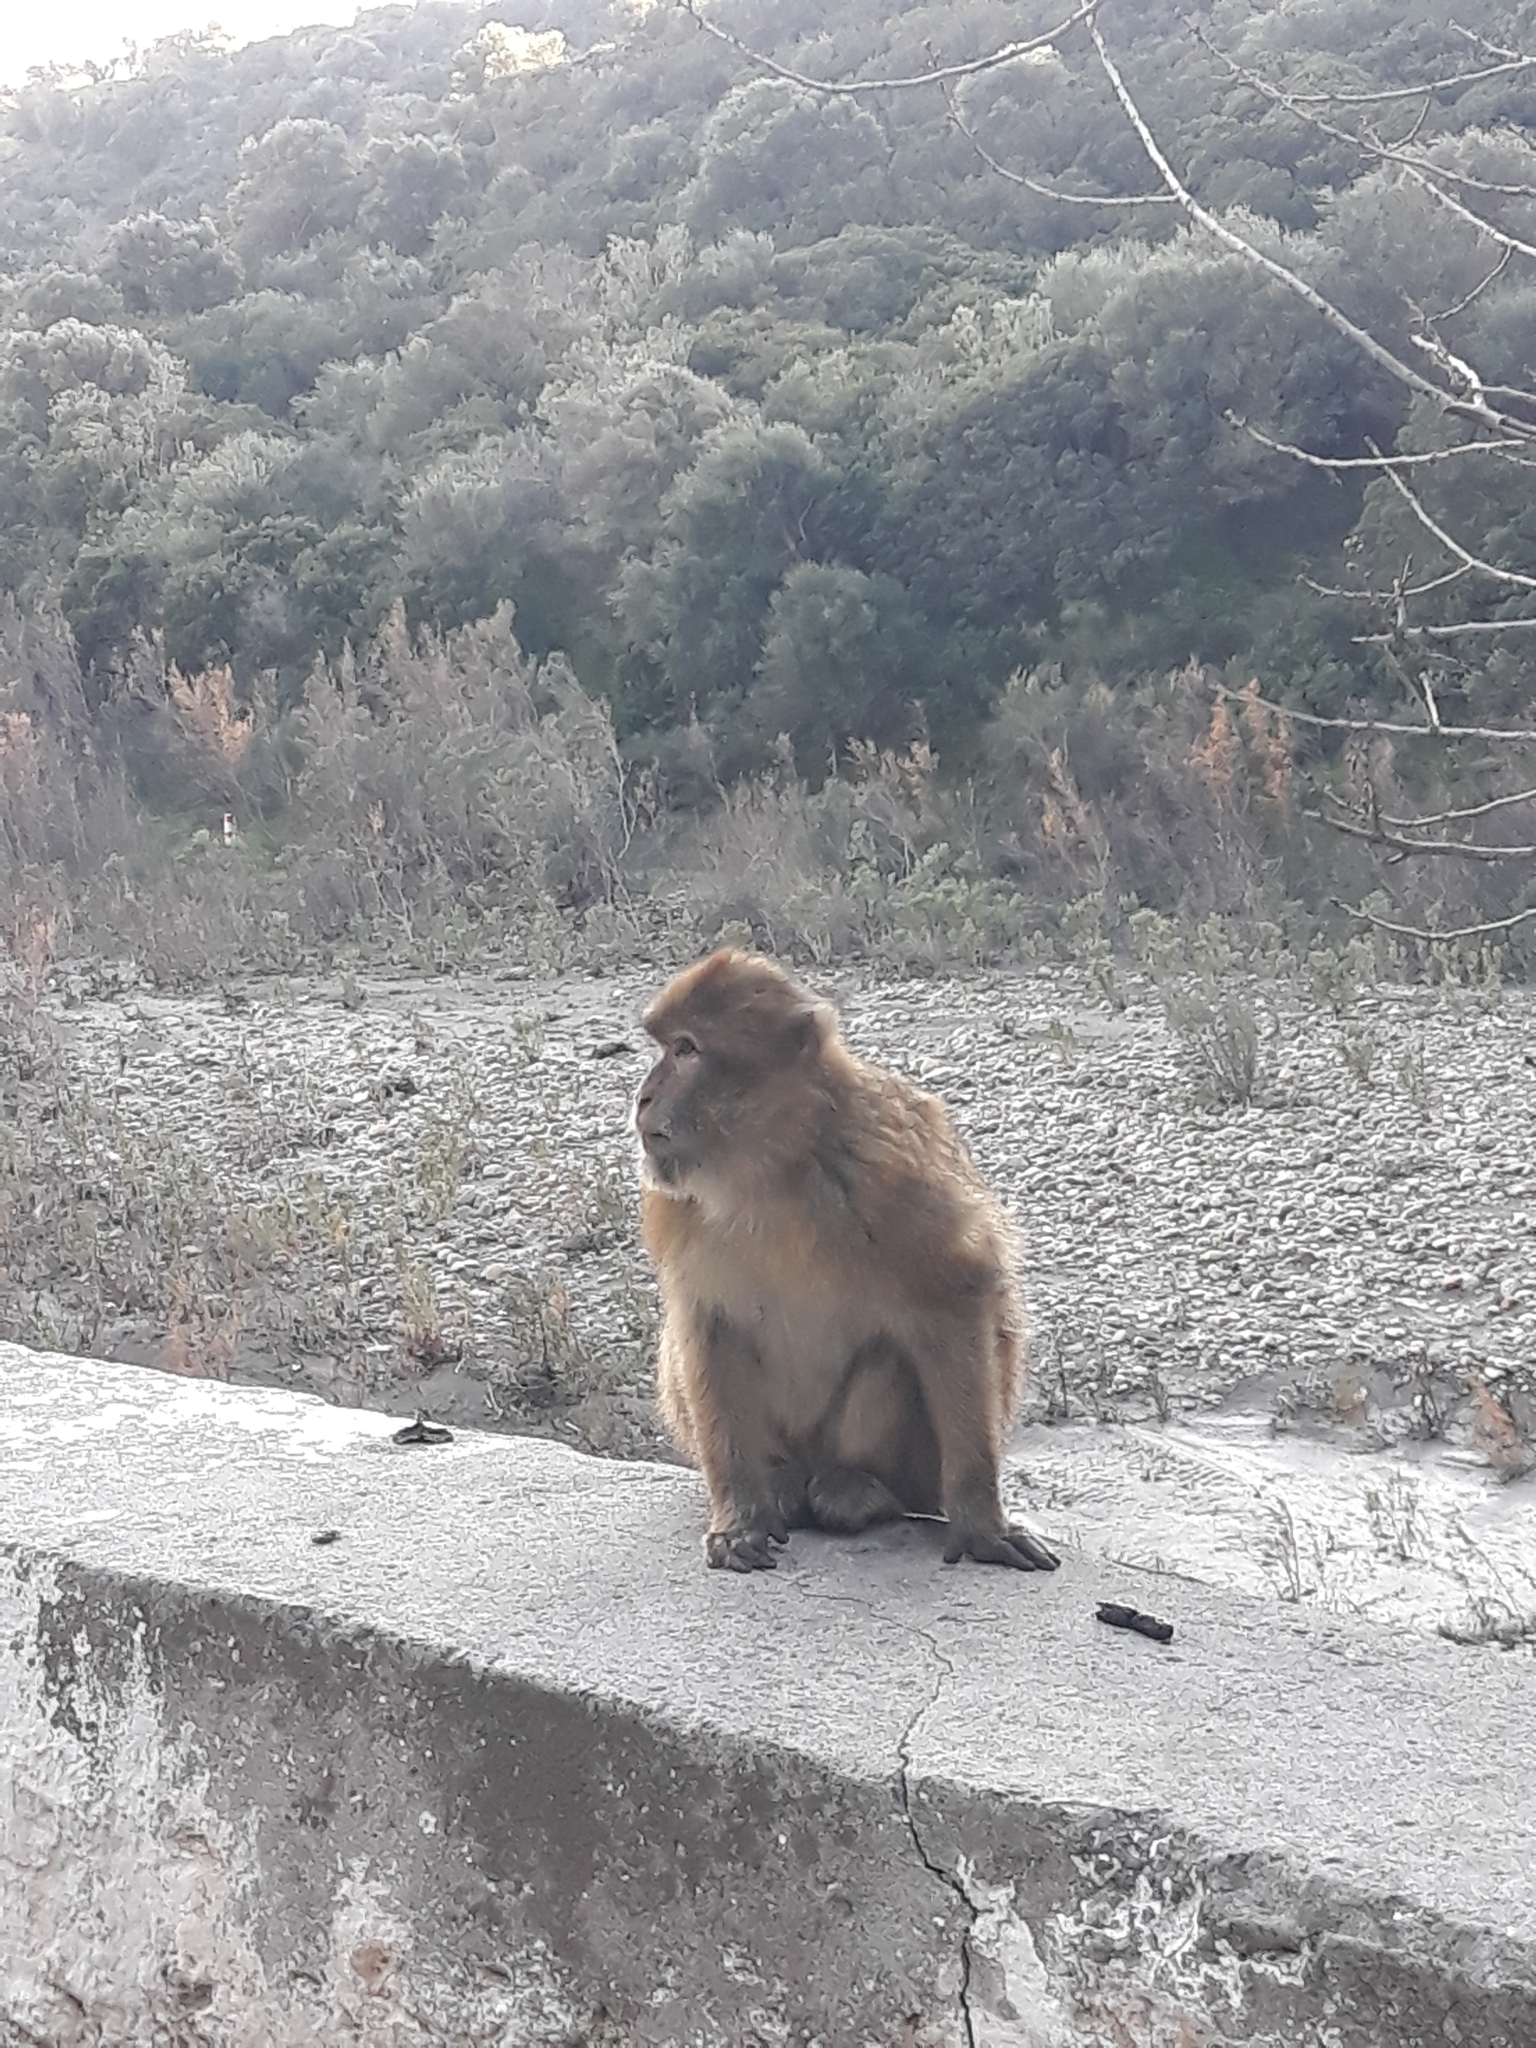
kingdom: Animalia
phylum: Chordata
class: Mammalia
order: Primates
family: Cercopithecidae
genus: Macaca
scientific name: Macaca sylvanus
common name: Barbary macaque
